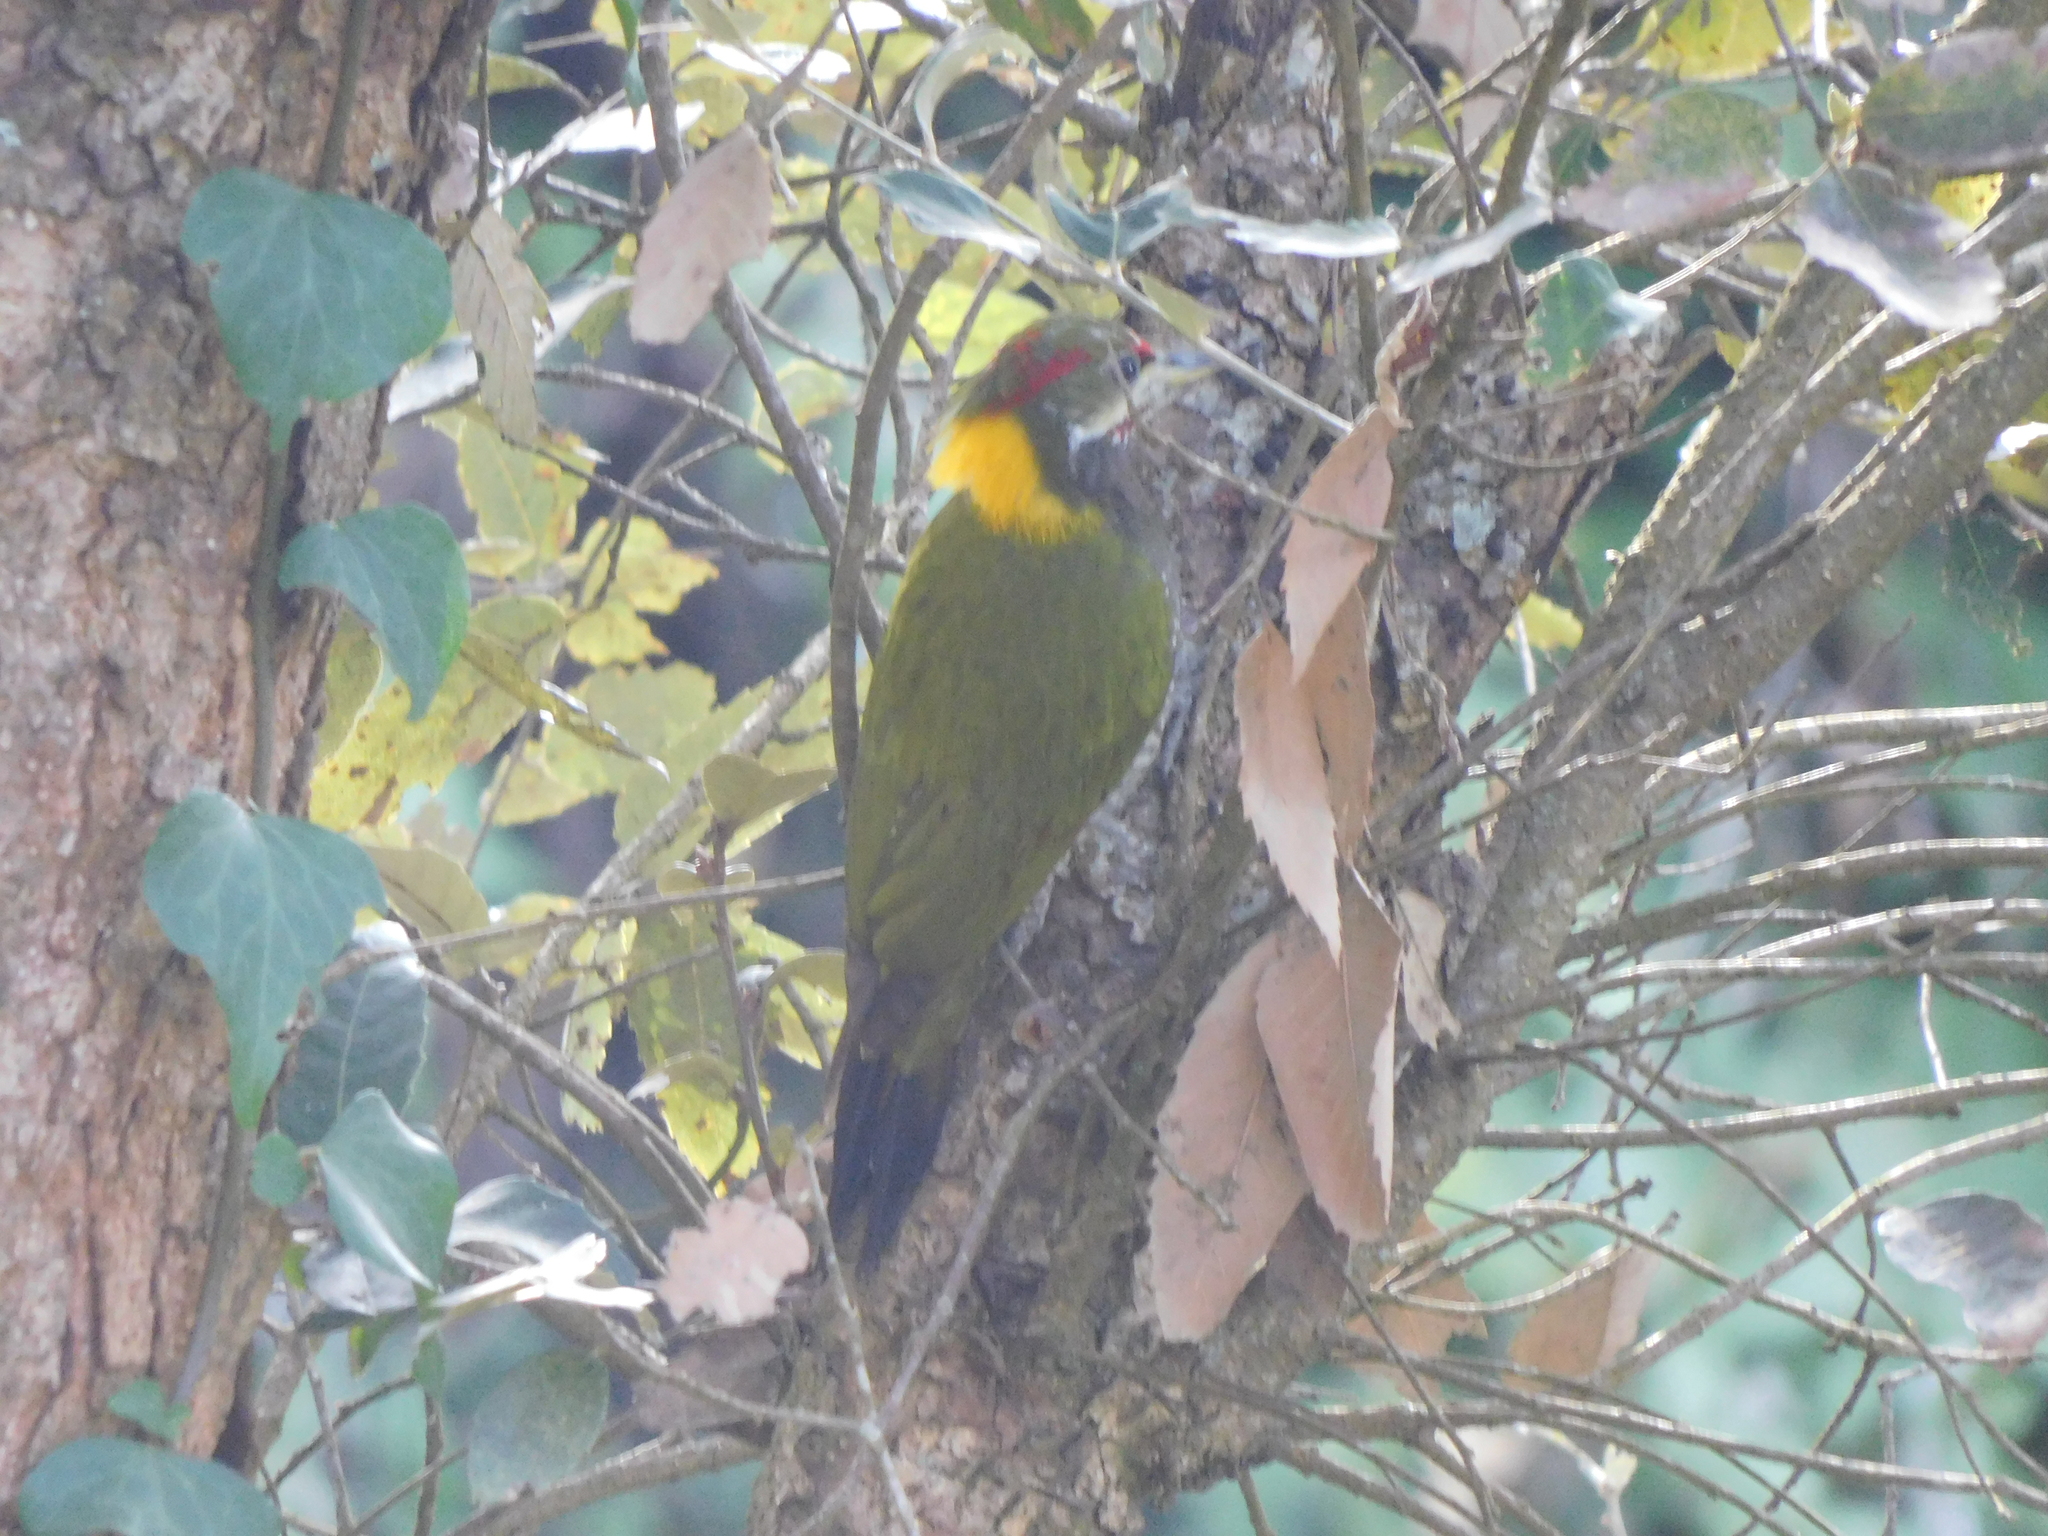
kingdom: Animalia
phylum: Chordata
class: Aves
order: Piciformes
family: Picidae
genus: Picus
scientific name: Picus chlorolophus
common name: Lesser yellownape
